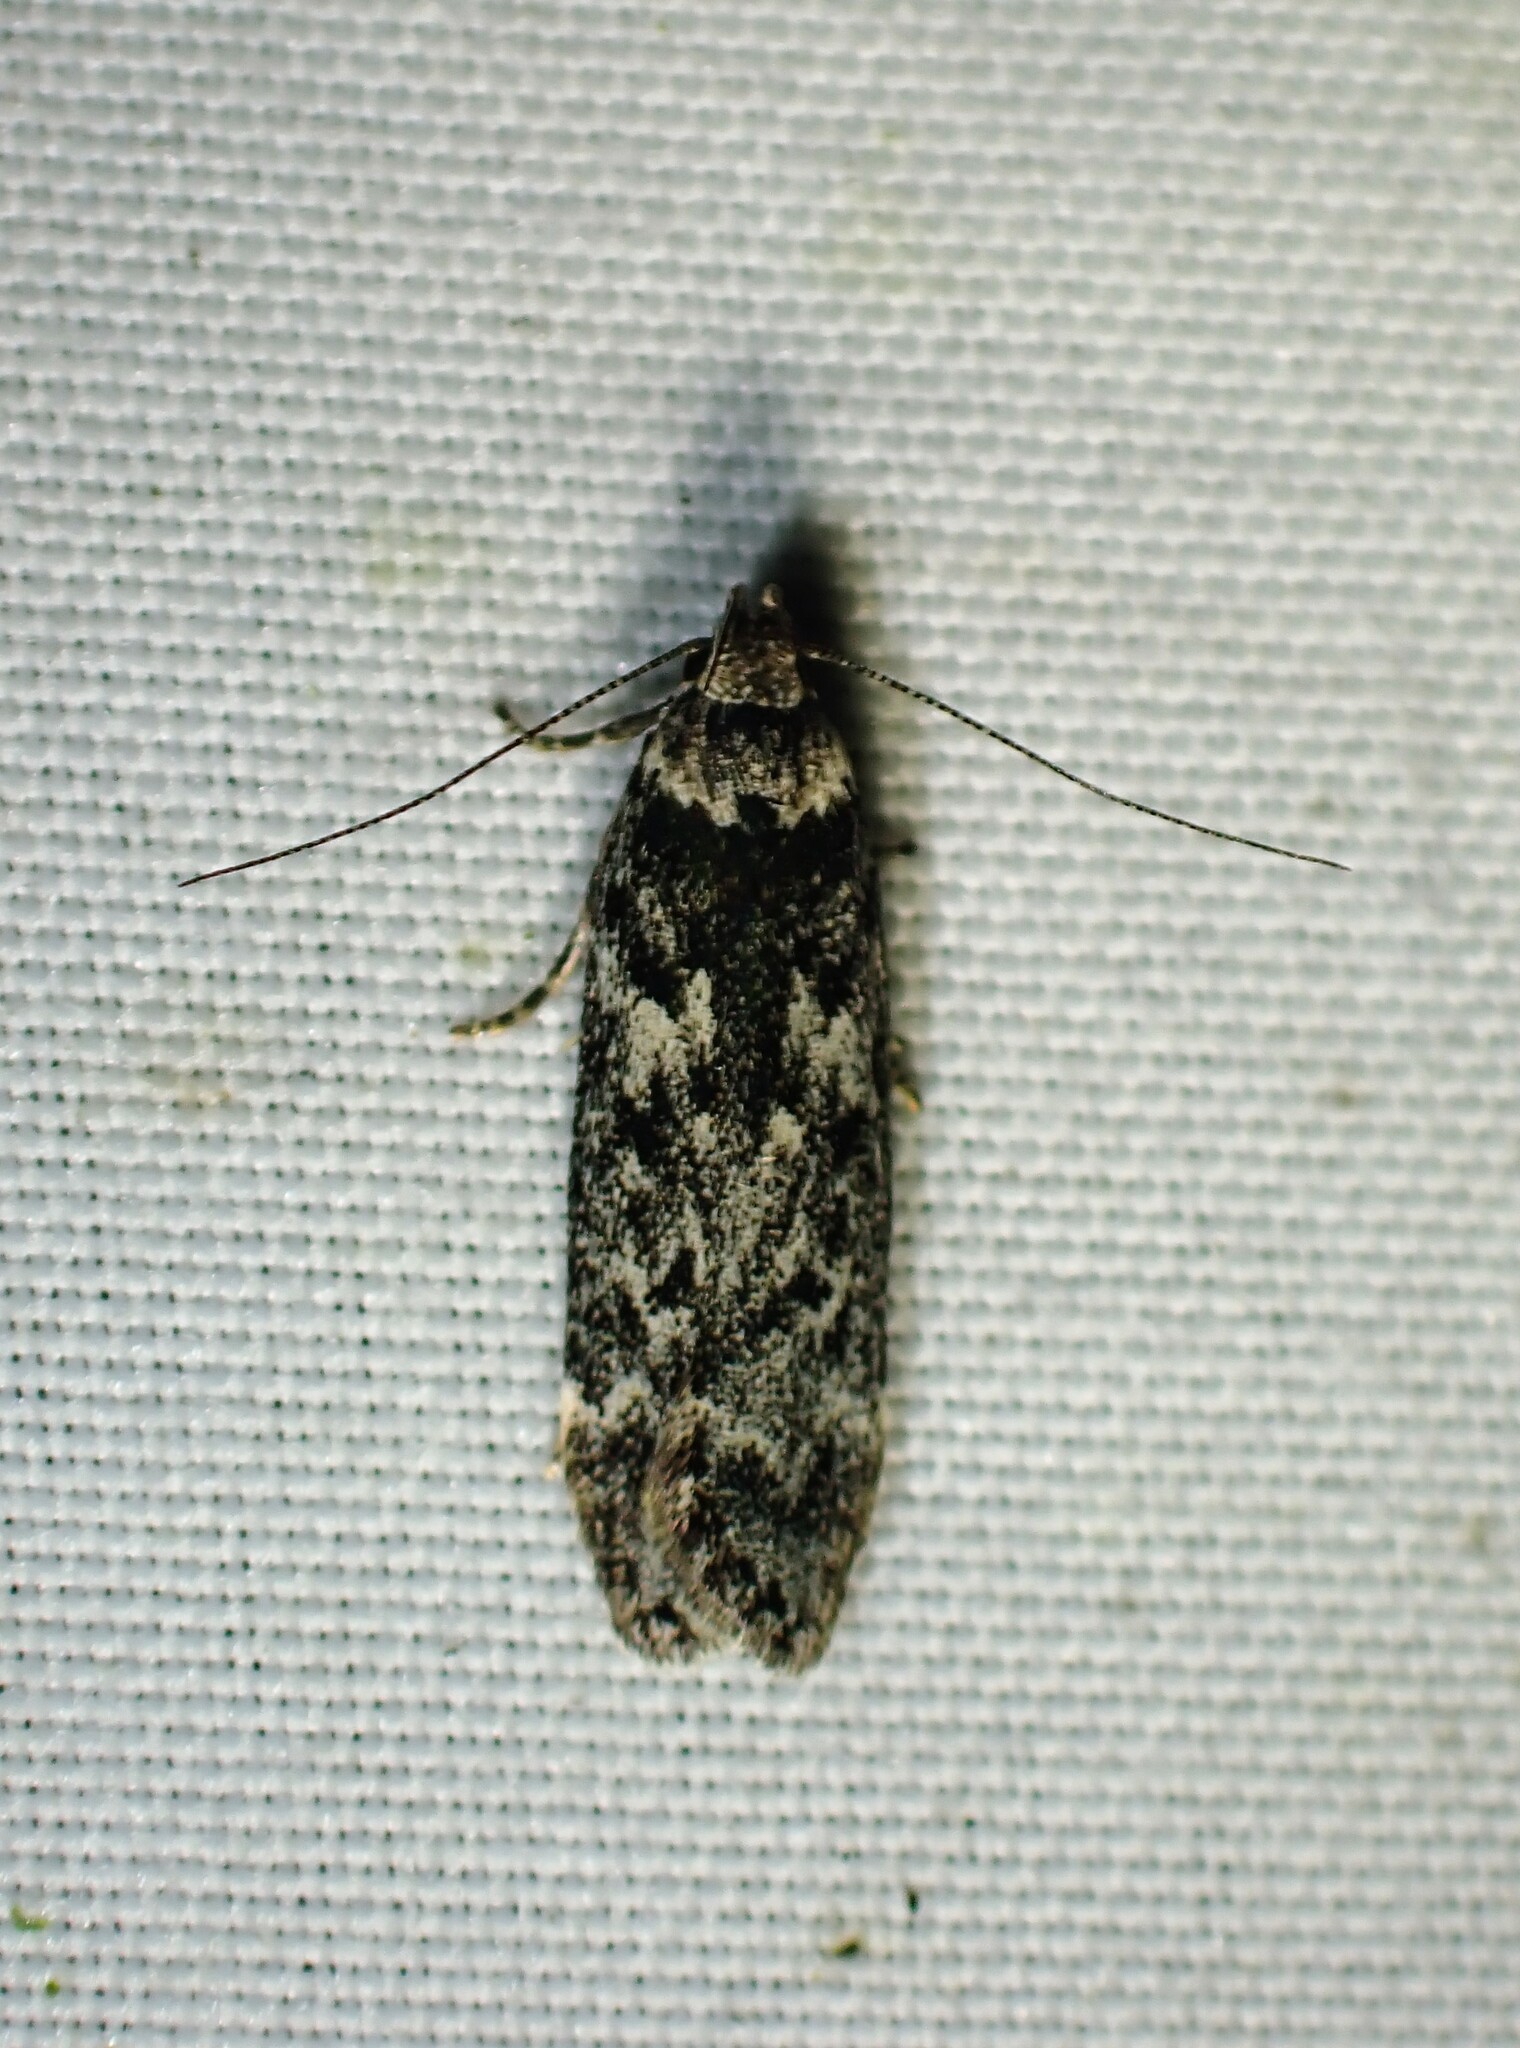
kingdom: Animalia
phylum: Arthropoda
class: Insecta
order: Lepidoptera
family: Gelechiidae
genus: Anacampsis
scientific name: Anacampsis niveopulvella
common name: Pale-headed aspen leafroller moth
